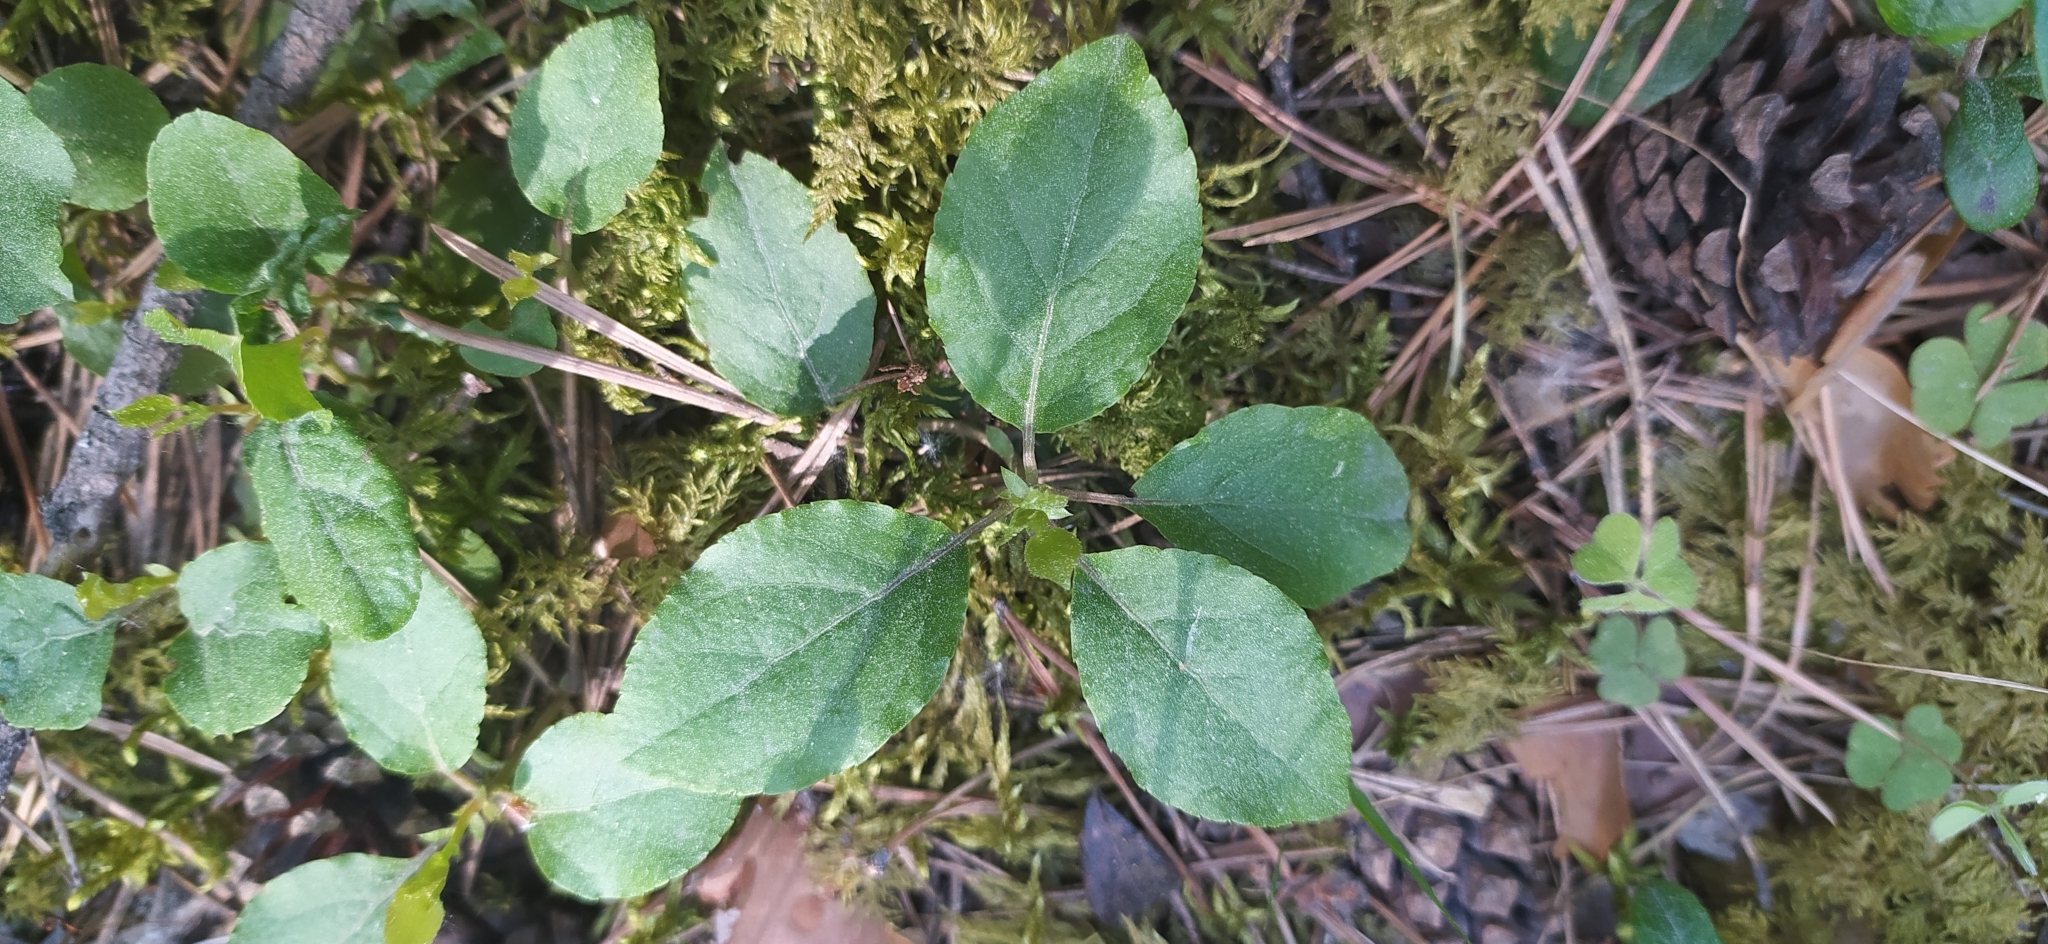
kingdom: Plantae
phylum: Tracheophyta
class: Magnoliopsida
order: Ericales
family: Ericaceae
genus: Orthilia
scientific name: Orthilia secunda
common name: One-sided orthilia
